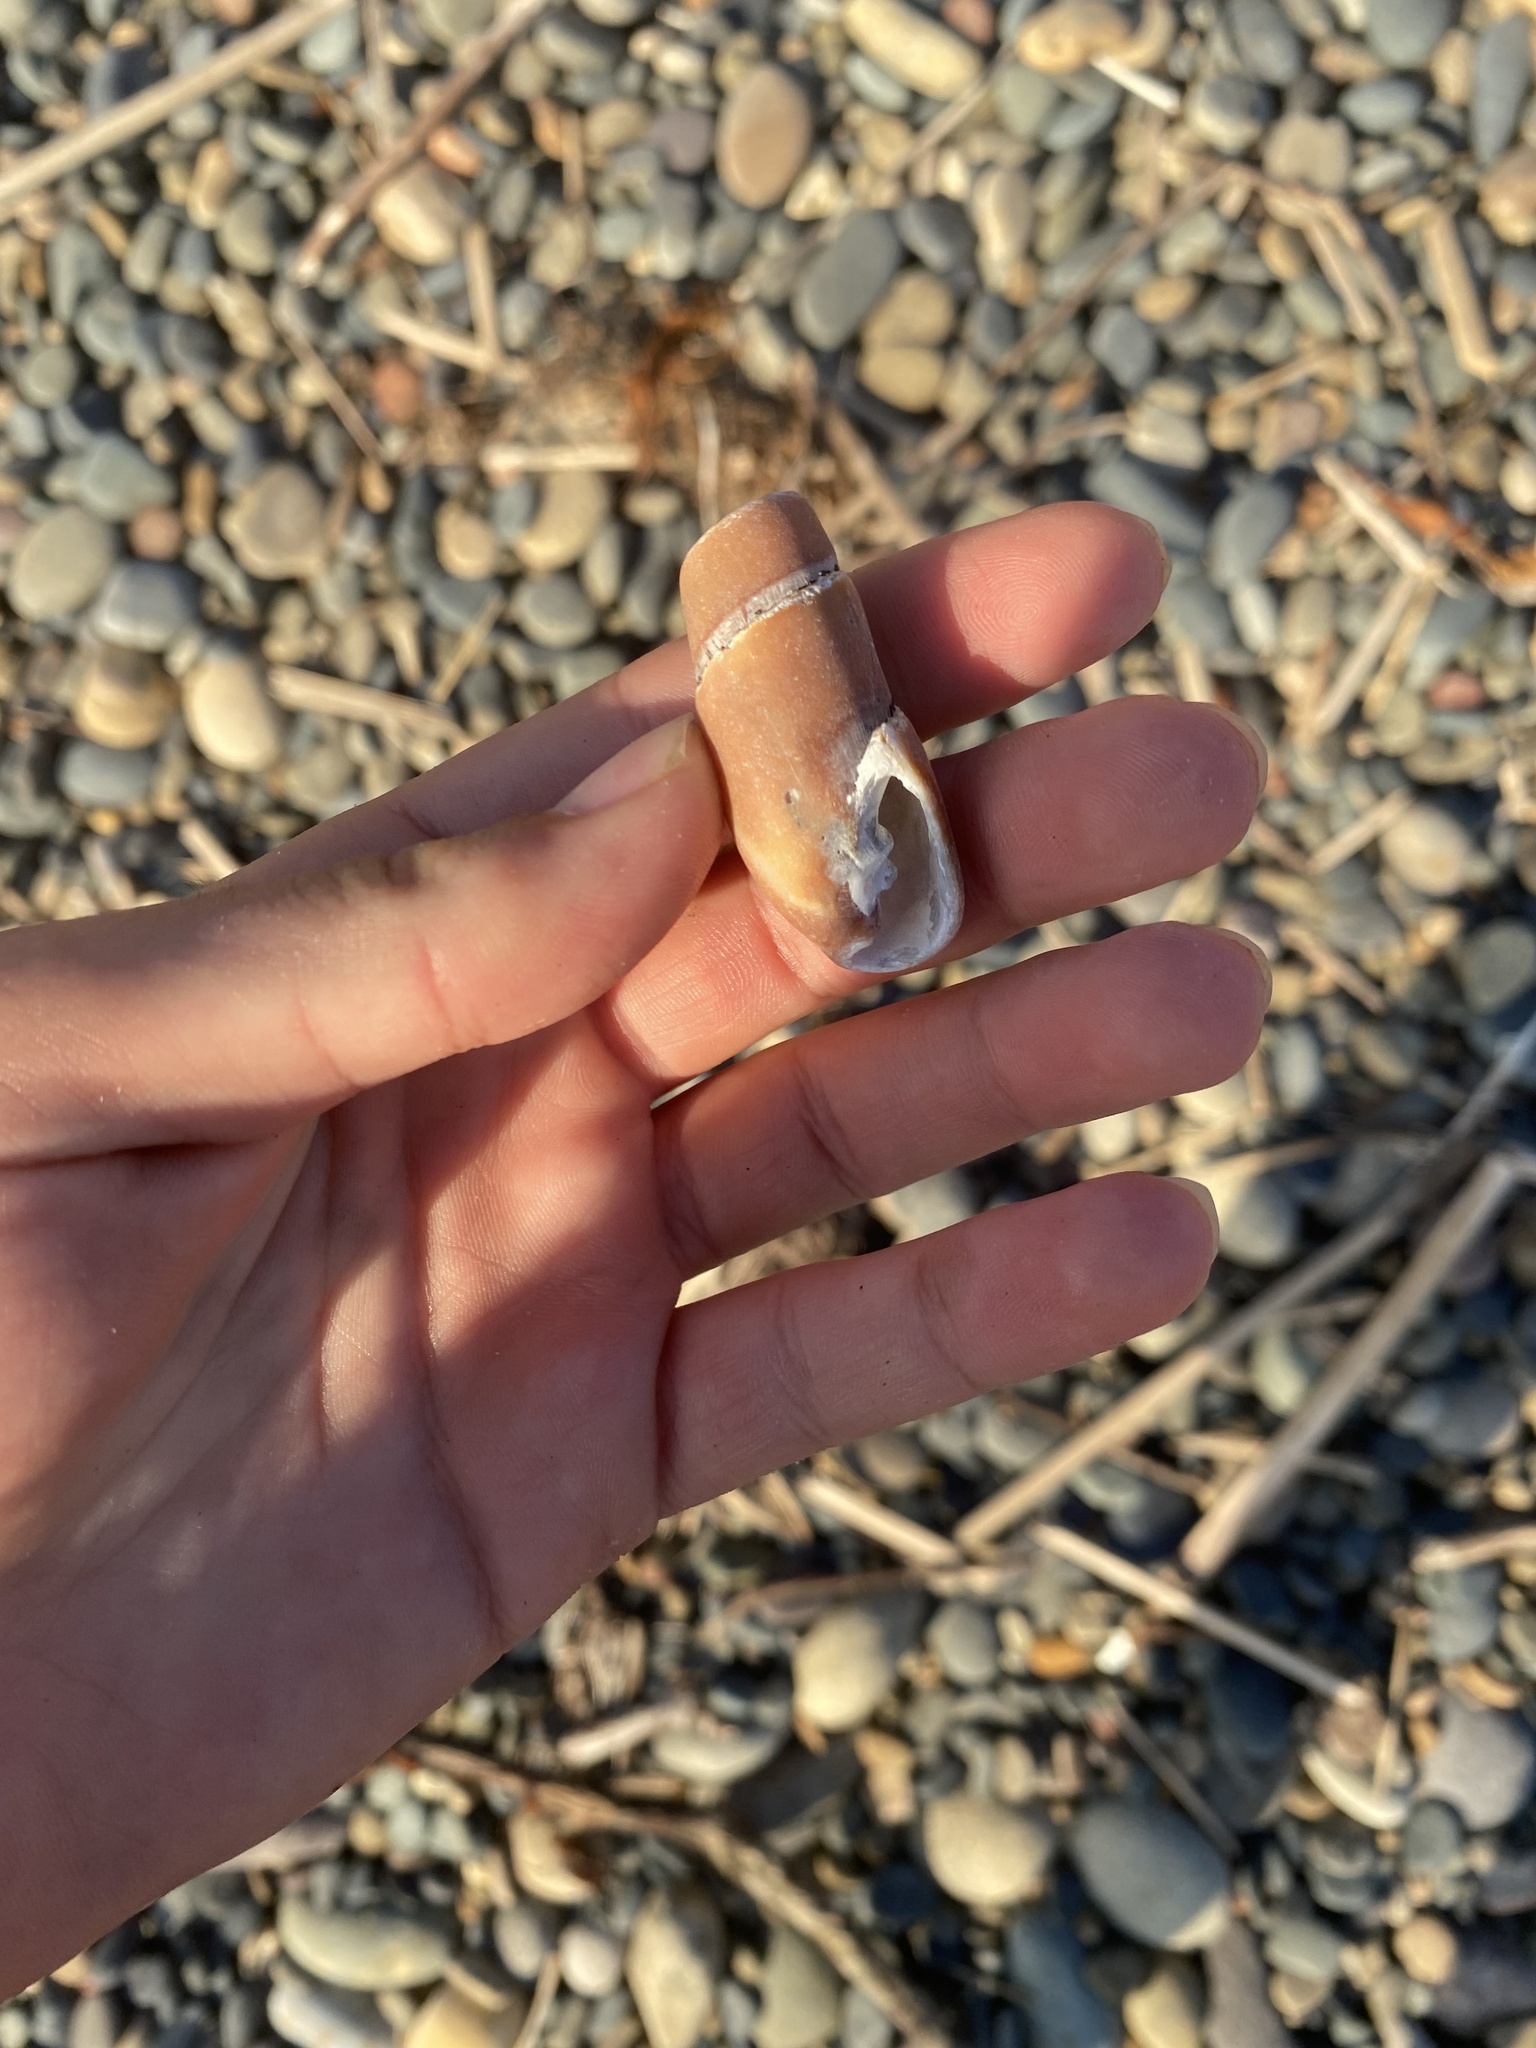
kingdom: Animalia
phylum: Mollusca
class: Gastropoda
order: Neogastropoda
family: Mitridae
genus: Atrimitra
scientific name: Atrimitra idae
